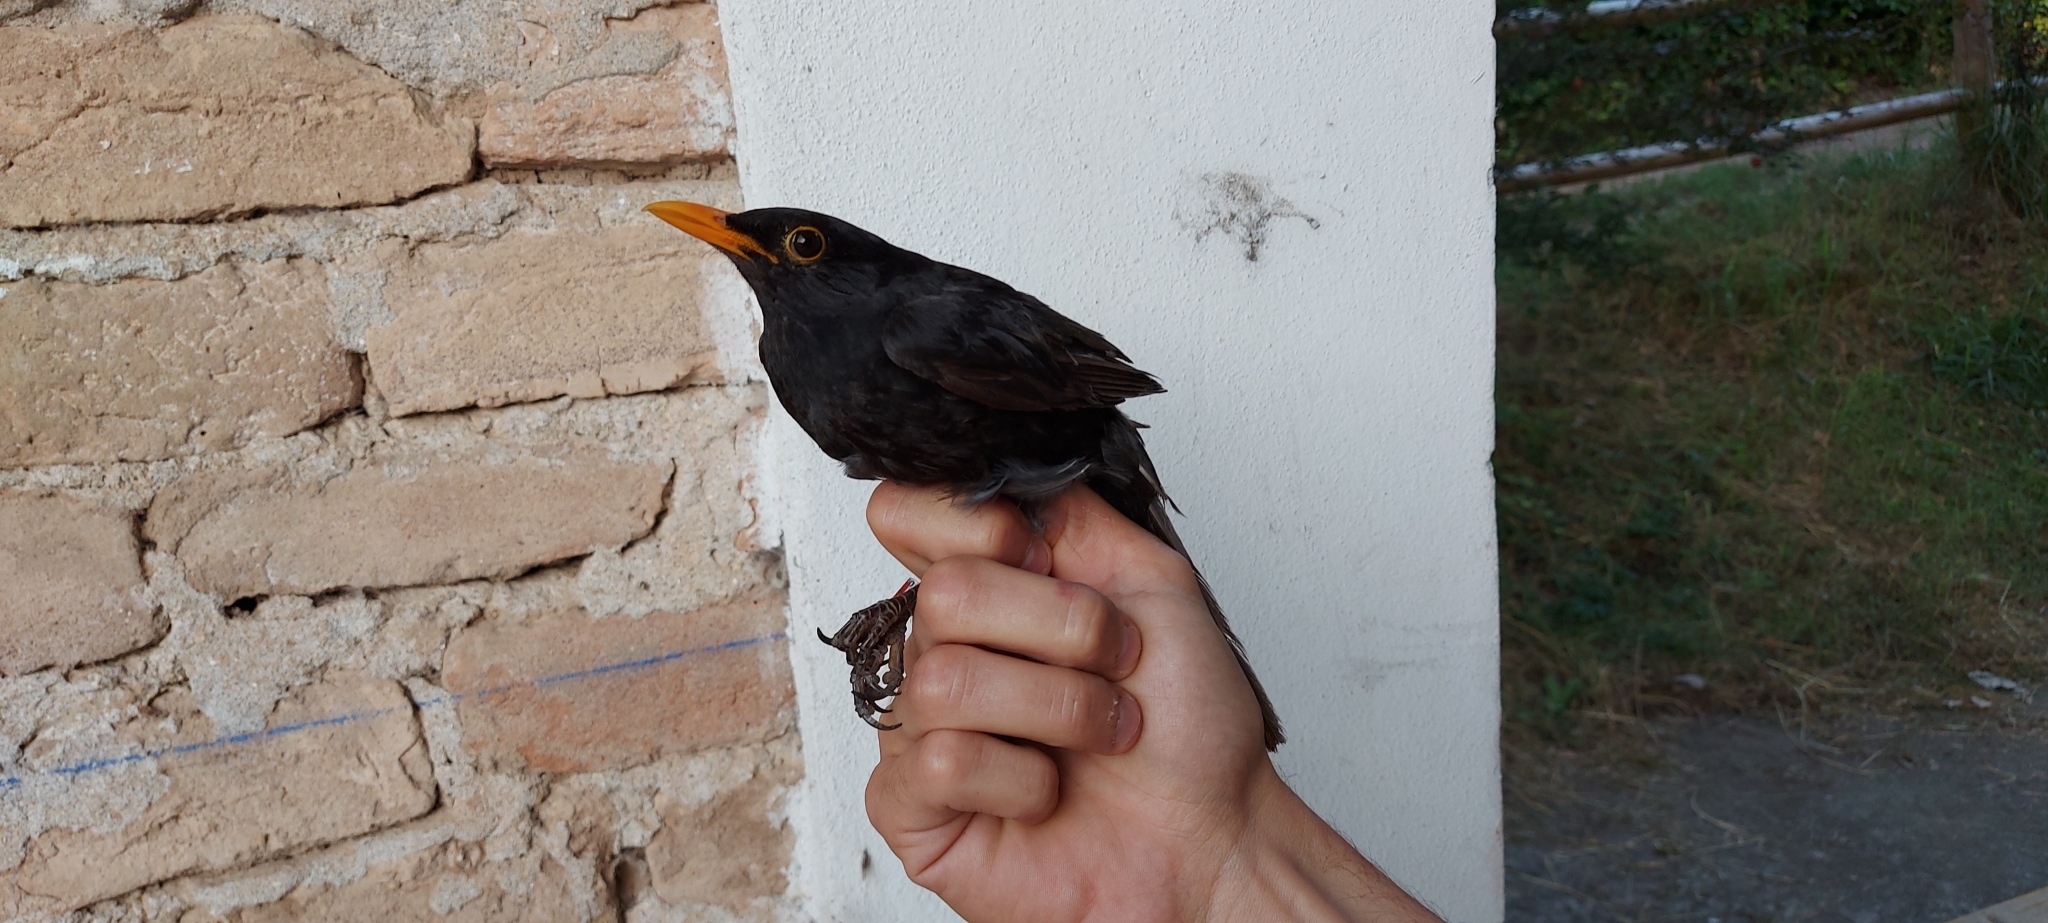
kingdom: Animalia
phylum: Chordata
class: Aves
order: Passeriformes
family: Turdidae
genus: Turdus
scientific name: Turdus merula
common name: Common blackbird
